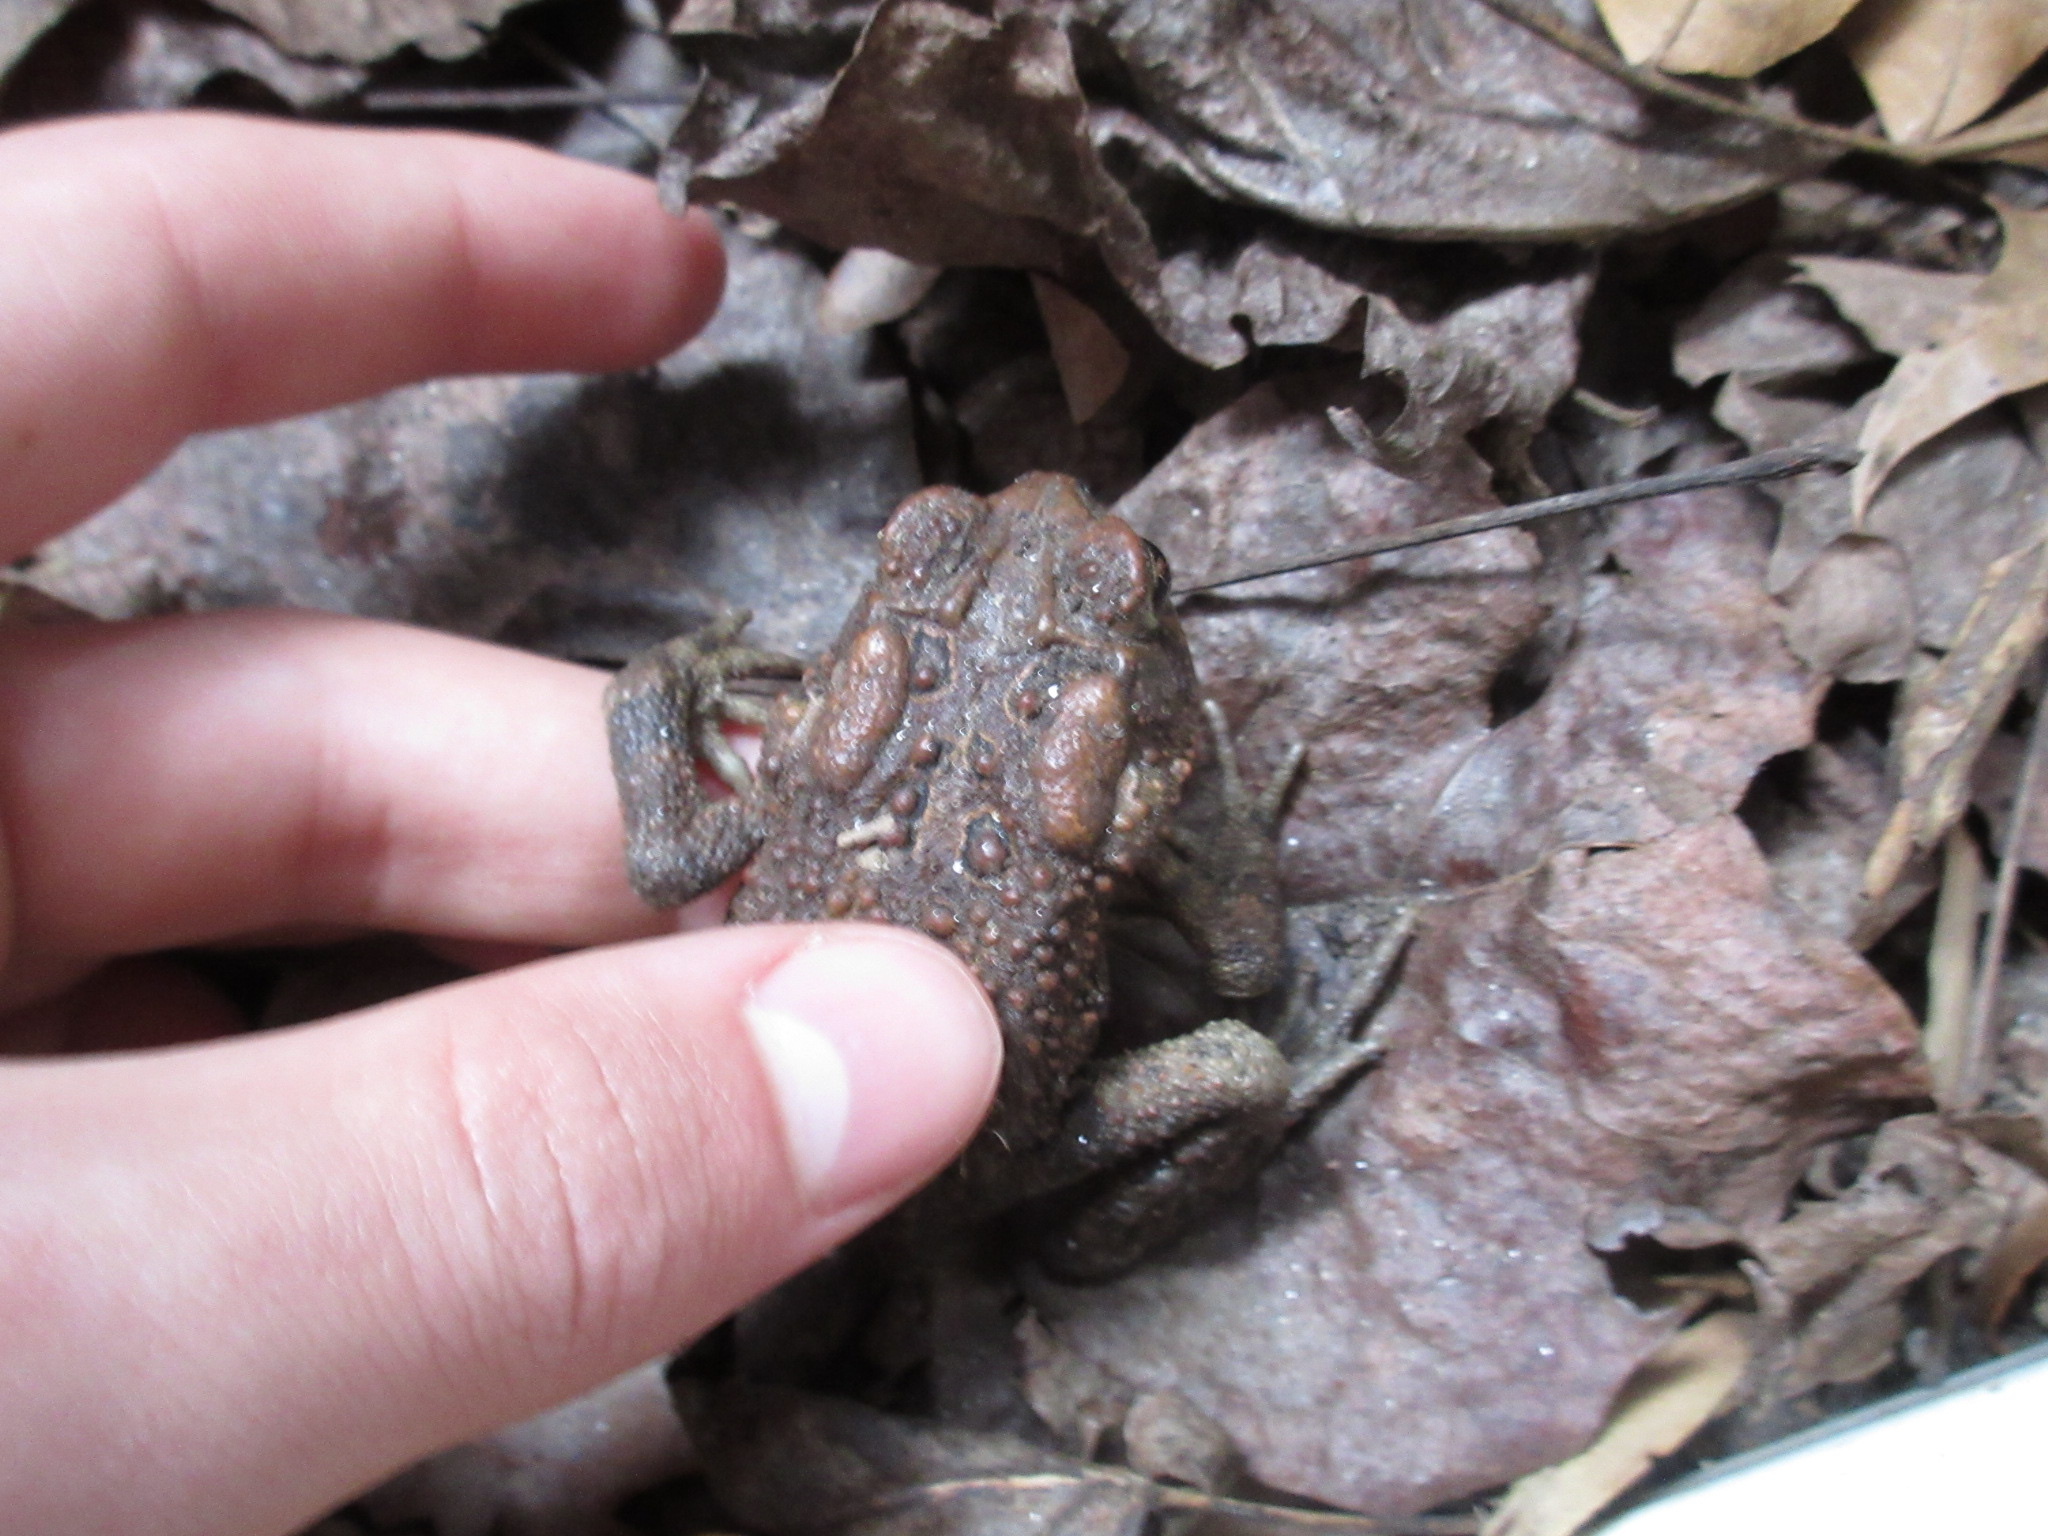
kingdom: Animalia
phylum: Chordata
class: Amphibia
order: Anura
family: Bufonidae
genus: Anaxyrus
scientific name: Anaxyrus americanus
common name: American toad
